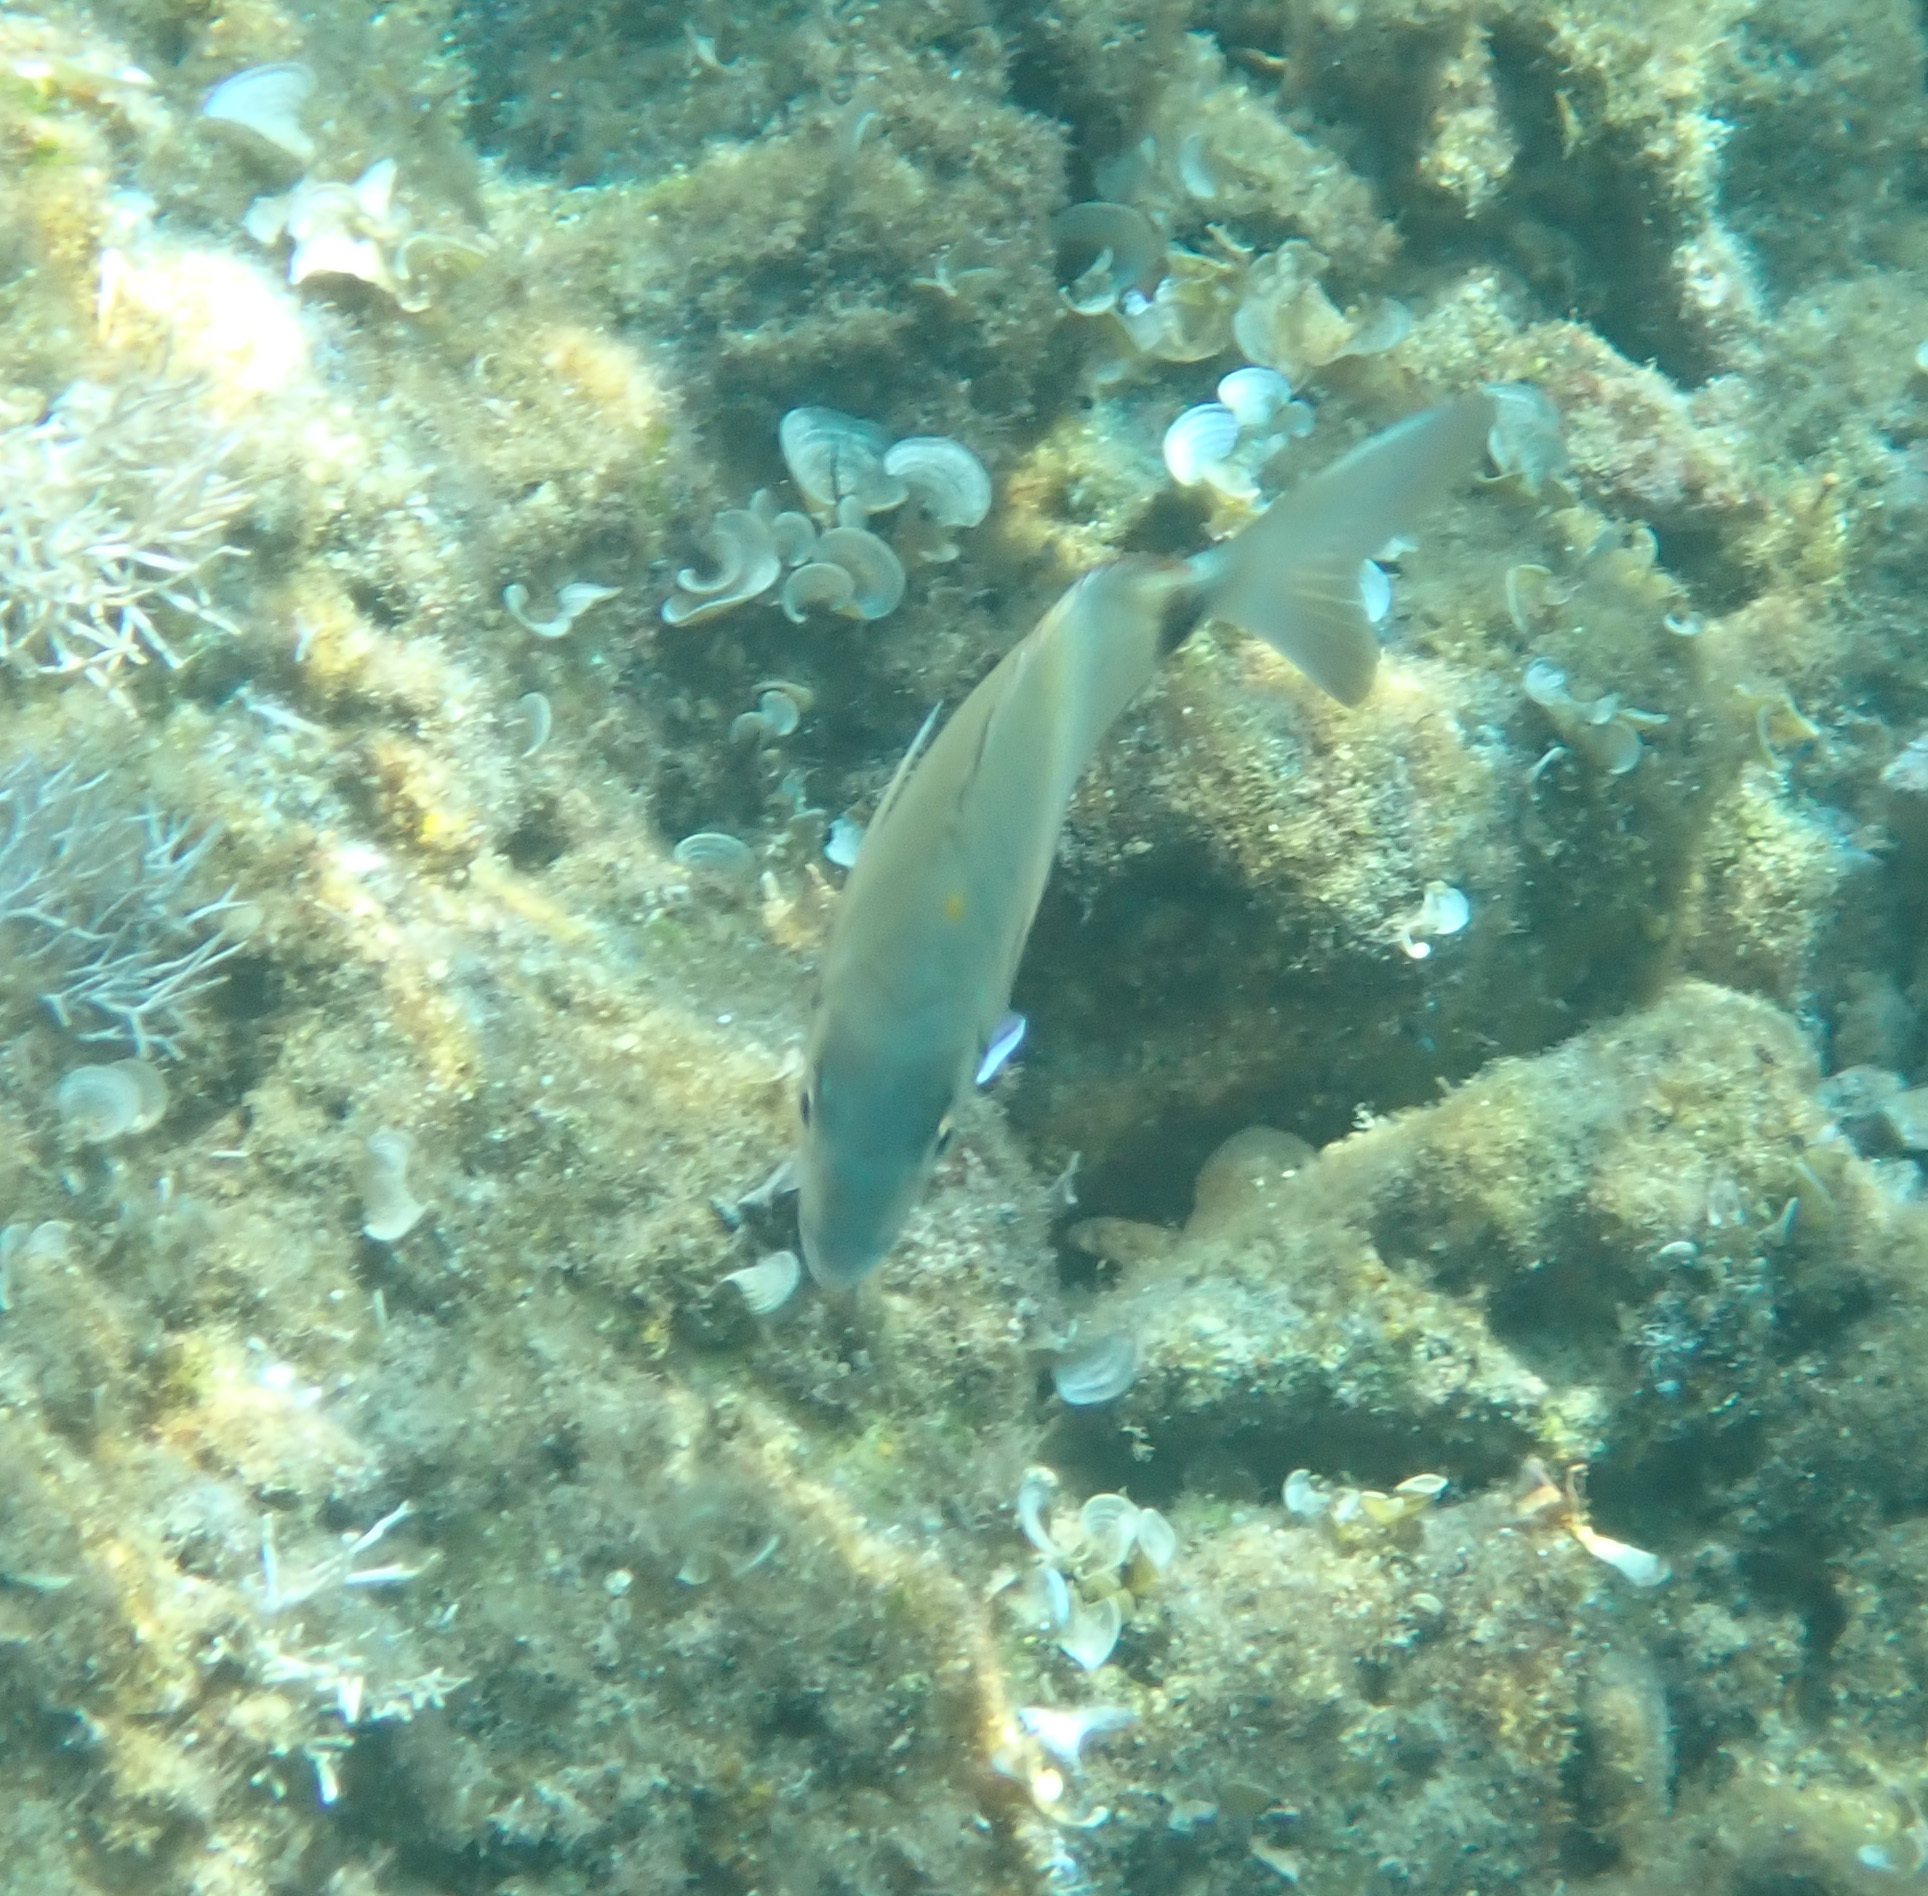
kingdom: Animalia
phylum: Chordata
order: Perciformes
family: Sparidae
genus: Diplodus
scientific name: Diplodus sargus
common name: White seabream
